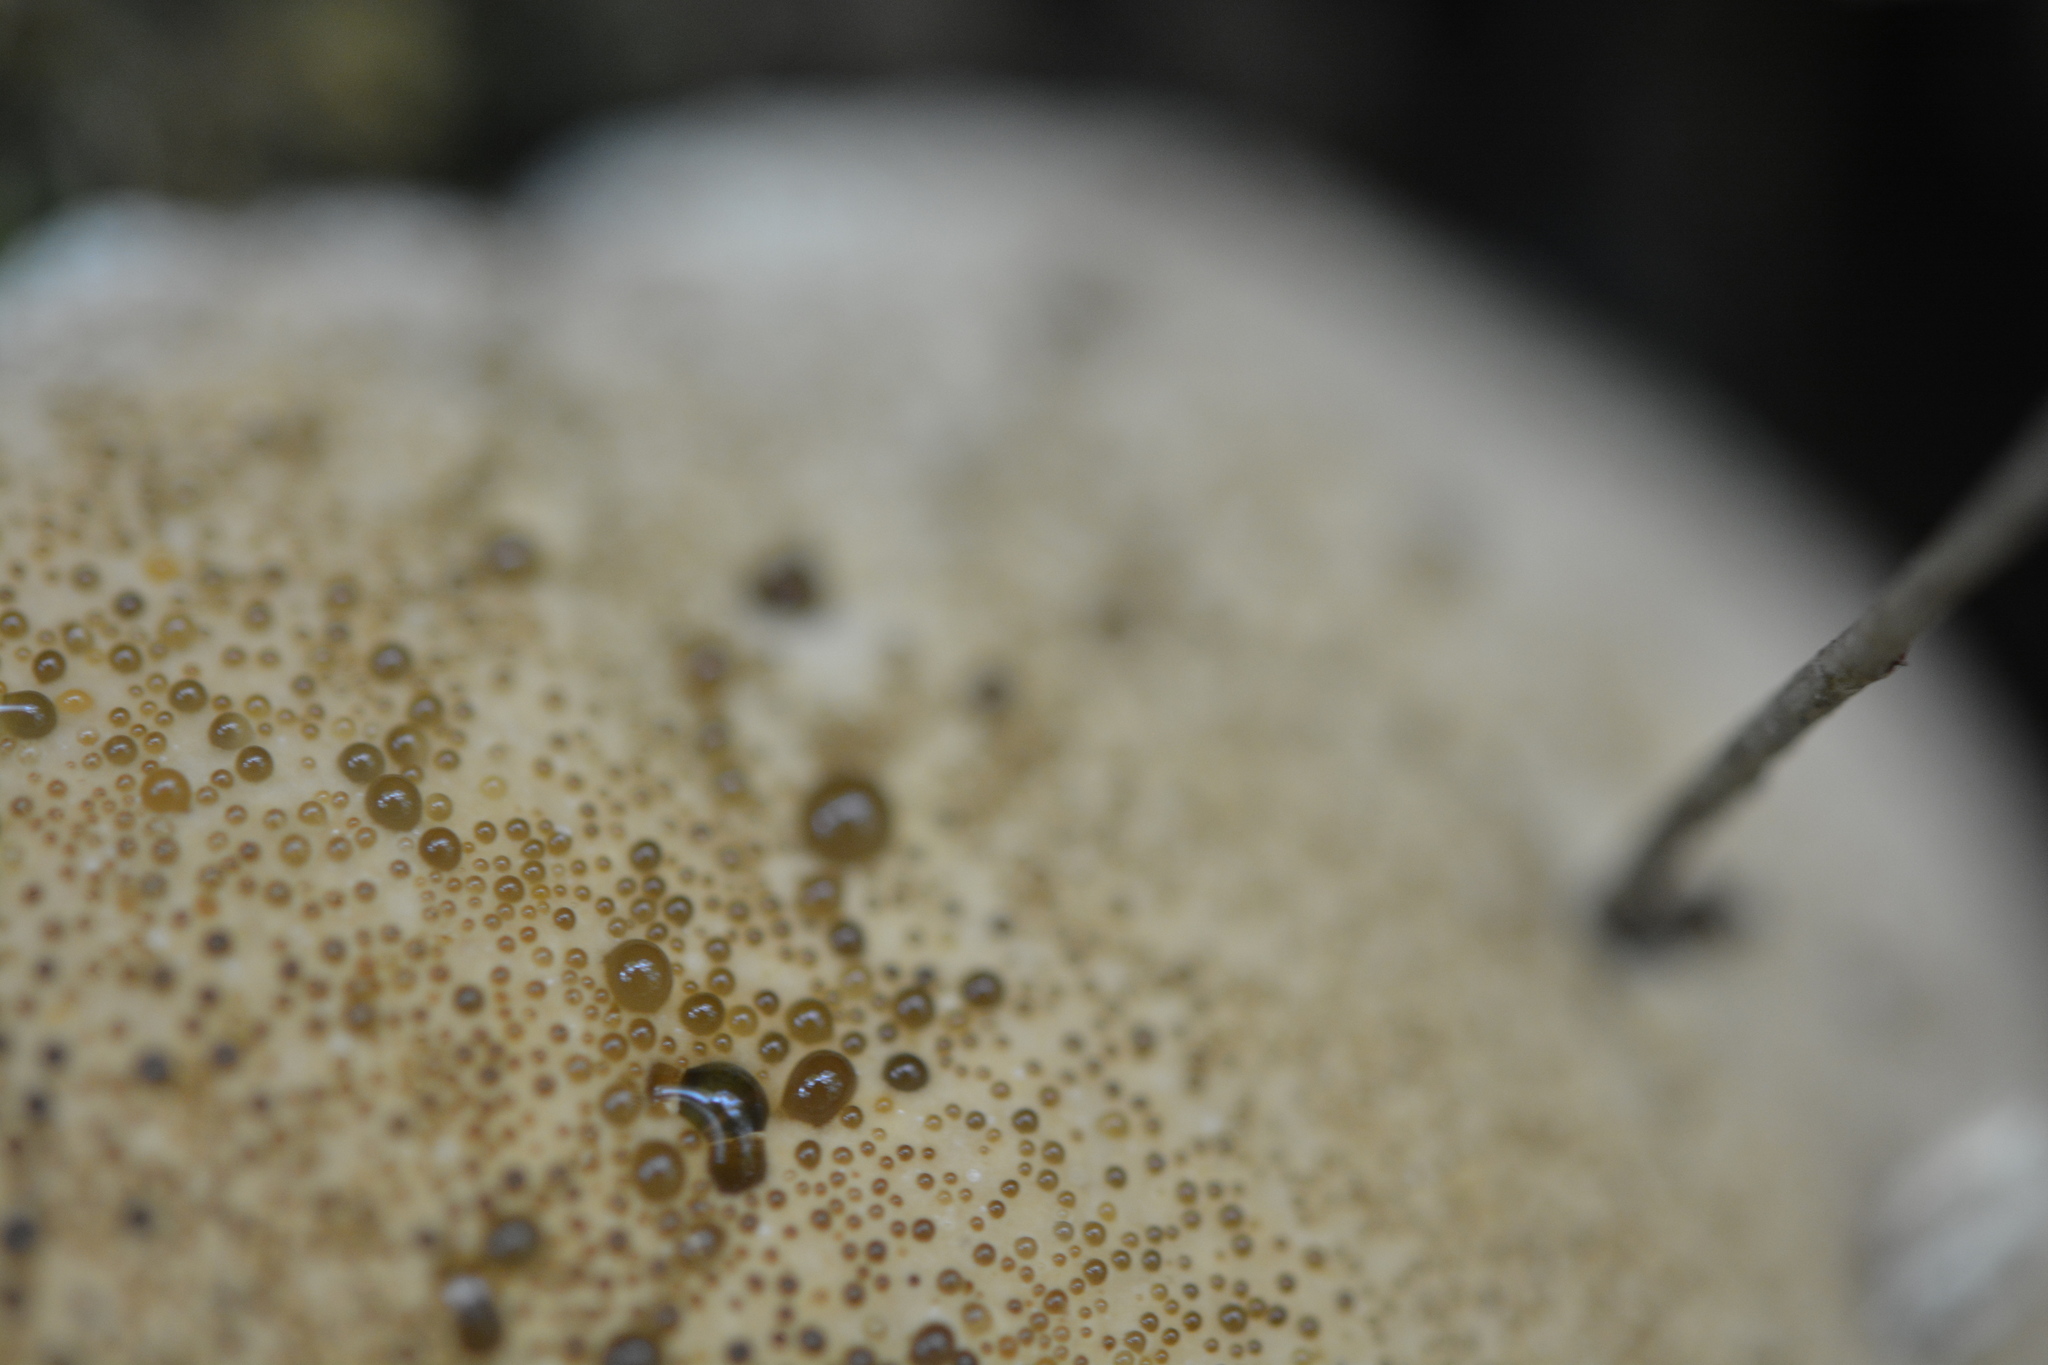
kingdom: Fungi
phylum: Basidiomycota
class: Agaricomycetes
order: Hymenochaetales
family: Hymenochaetaceae
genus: Pseudoinonotus
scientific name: Pseudoinonotus dryadeus
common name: Oak bracket
